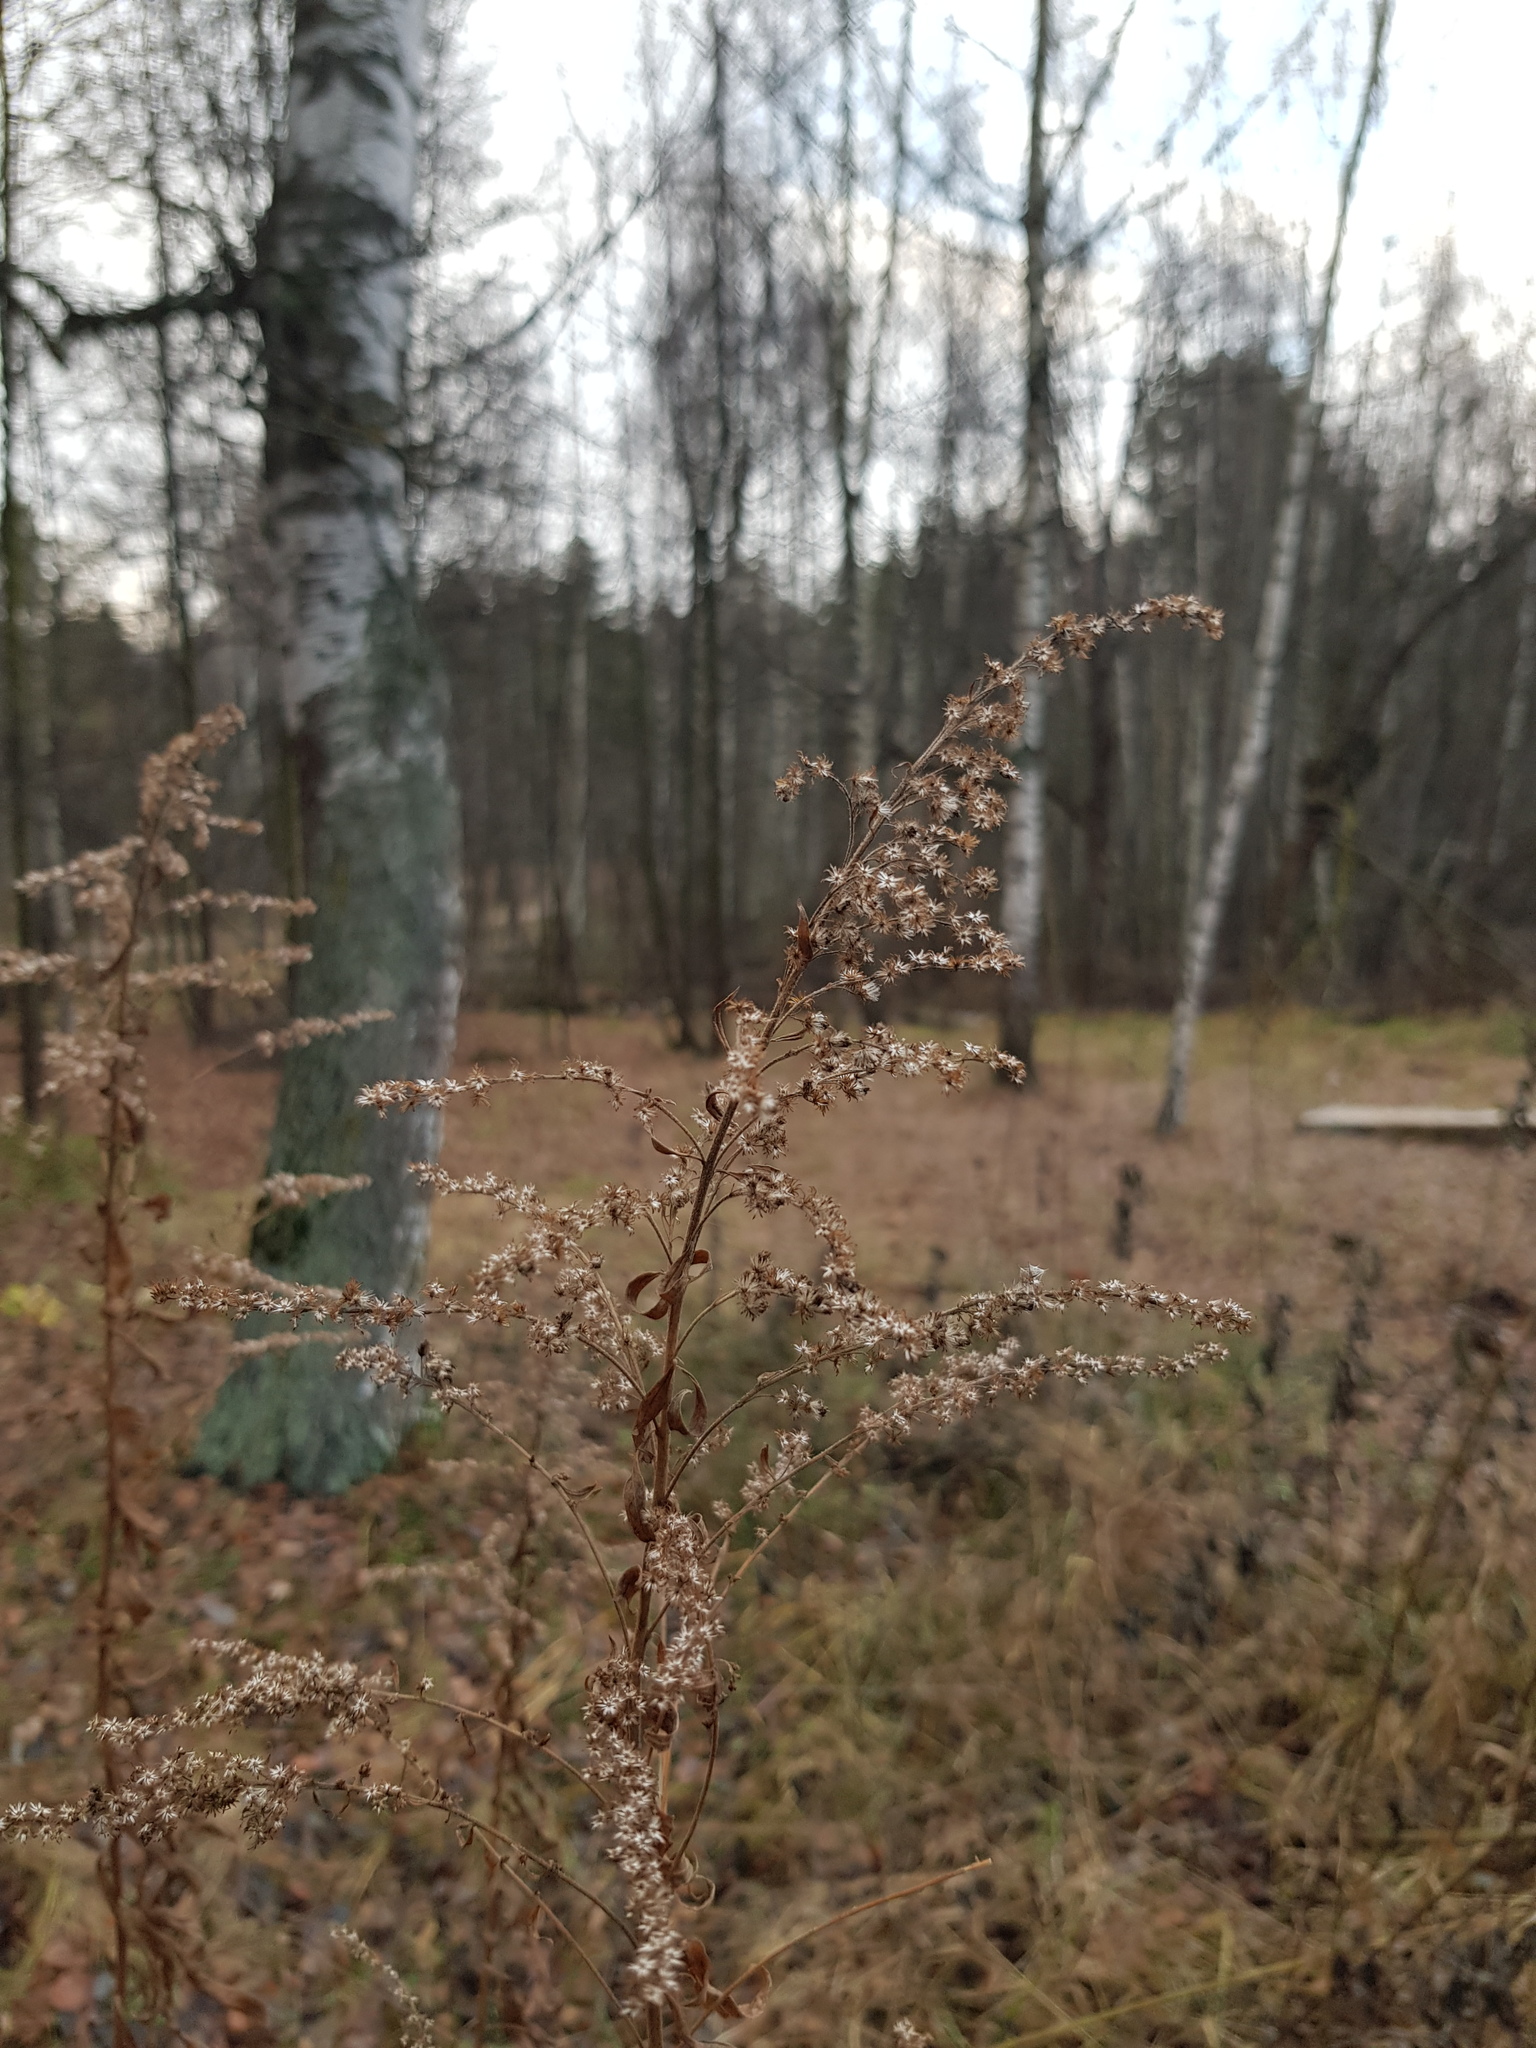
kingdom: Plantae
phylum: Tracheophyta
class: Magnoliopsida
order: Asterales
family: Asteraceae
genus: Solidago
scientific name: Solidago canadensis
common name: Canada goldenrod
